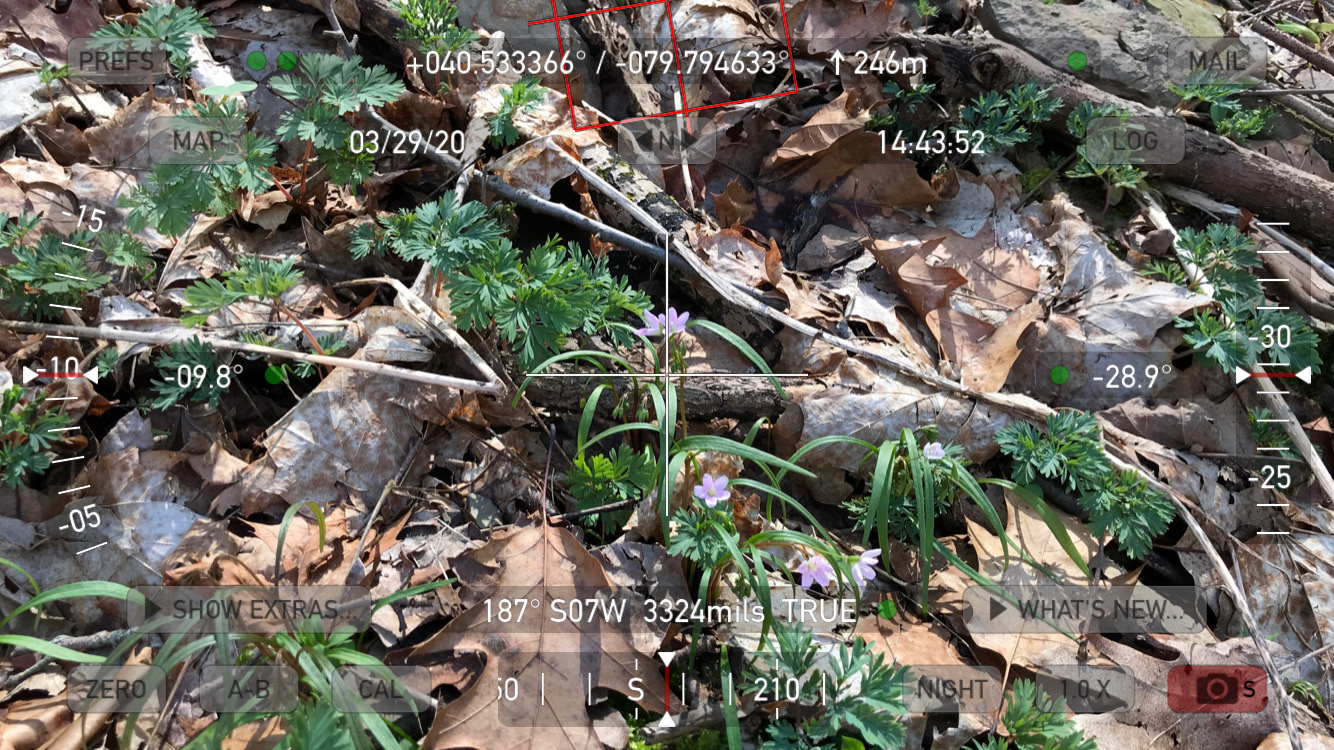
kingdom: Plantae
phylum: Tracheophyta
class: Magnoliopsida
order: Caryophyllales
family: Montiaceae
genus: Claytonia
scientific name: Claytonia virginica
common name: Virginia springbeauty
